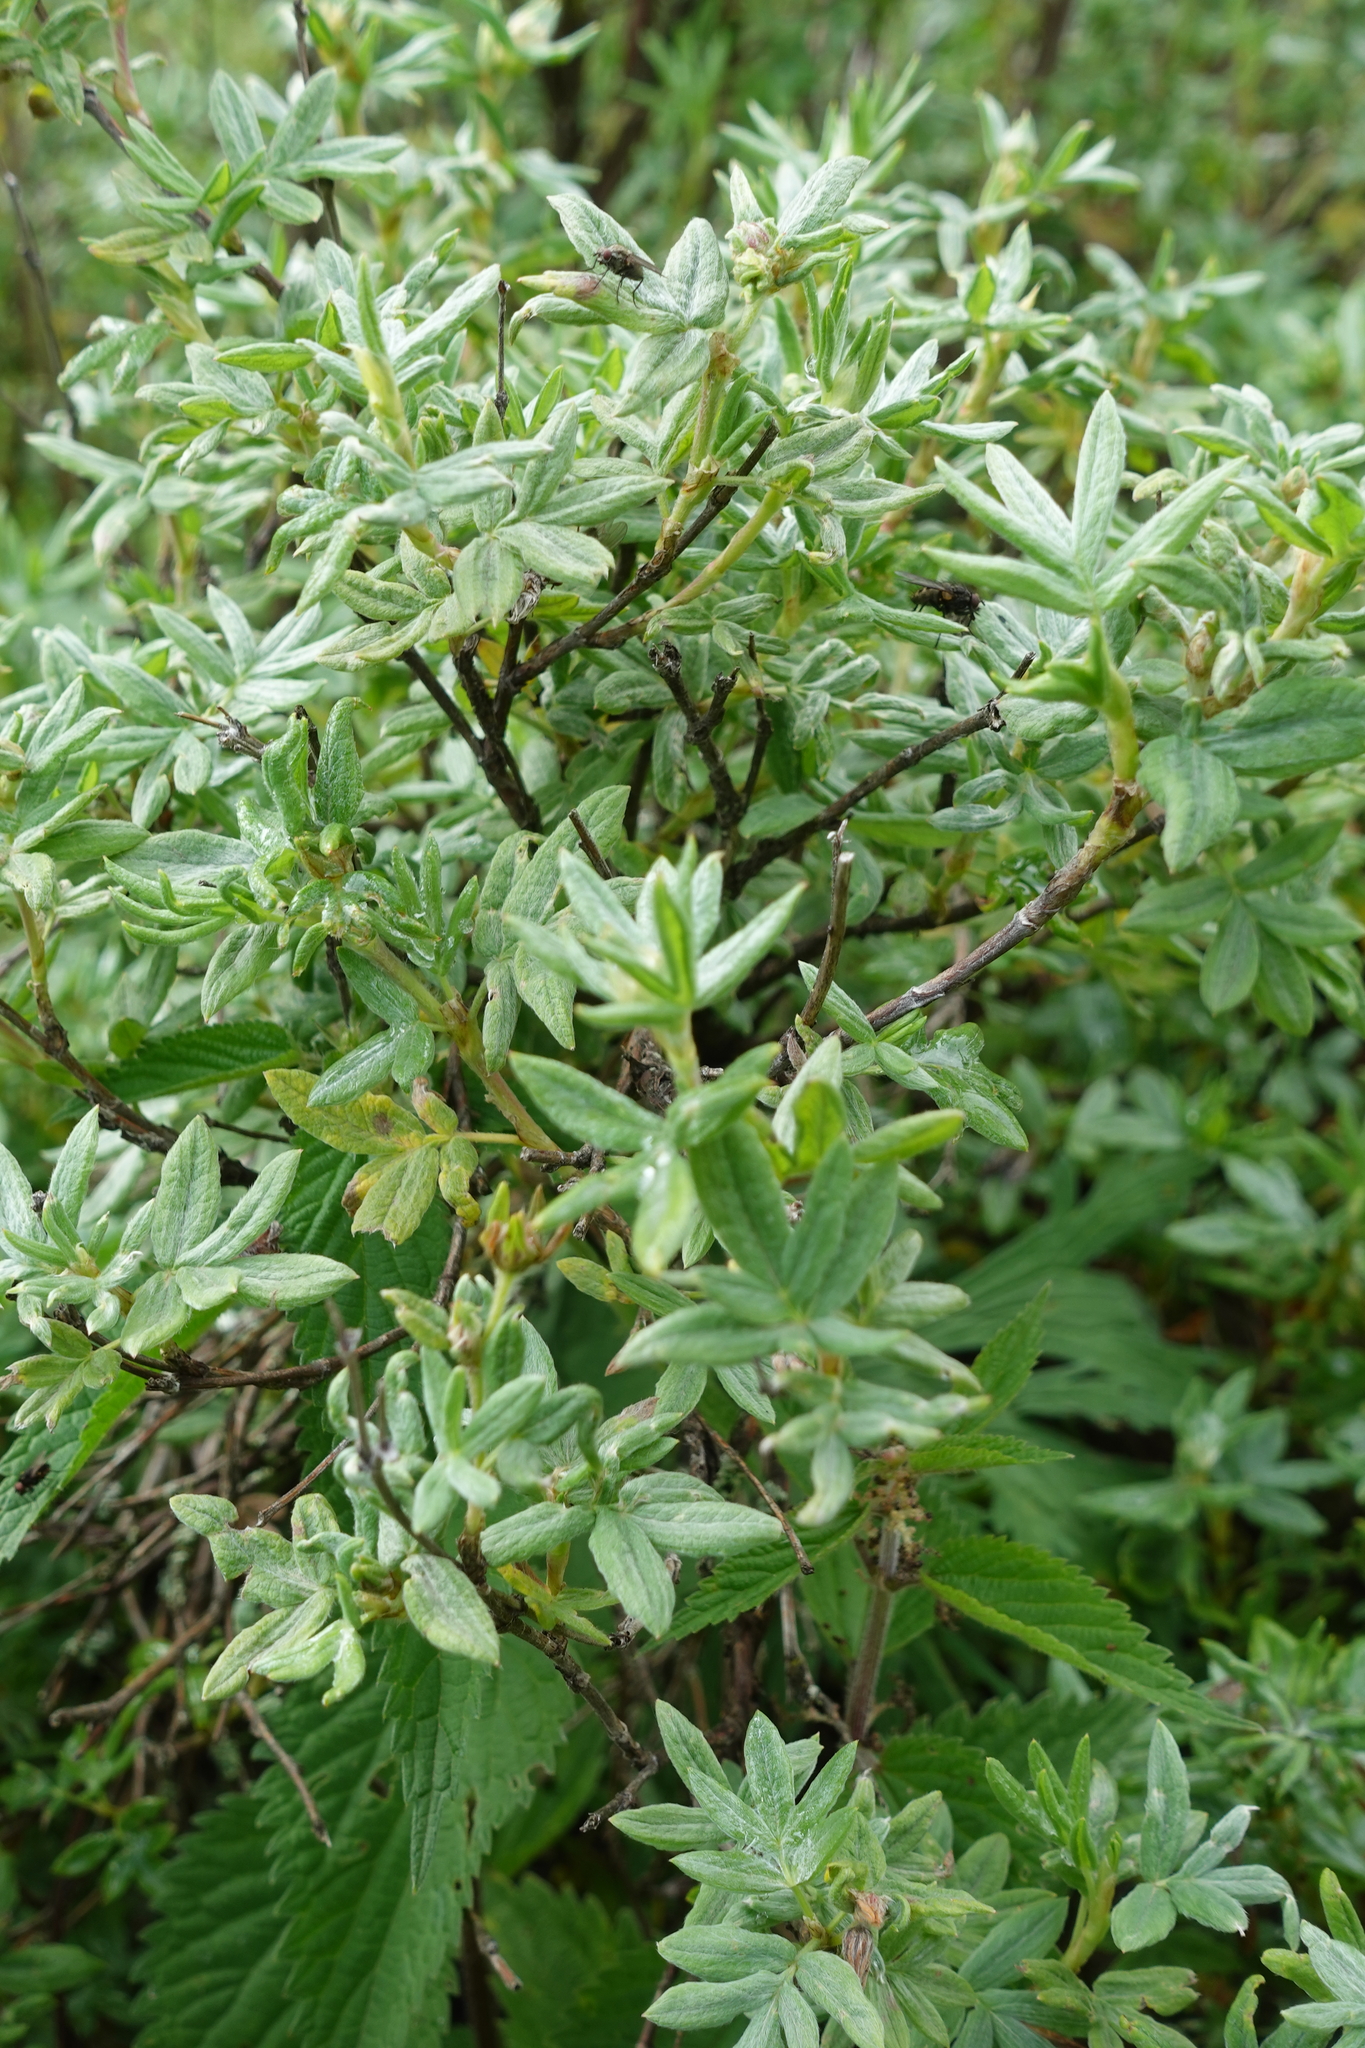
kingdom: Plantae
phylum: Tracheophyta
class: Magnoliopsida
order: Rosales
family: Rosaceae
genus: Dasiphora
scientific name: Dasiphora fruticosa
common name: Shrubby cinquefoil
